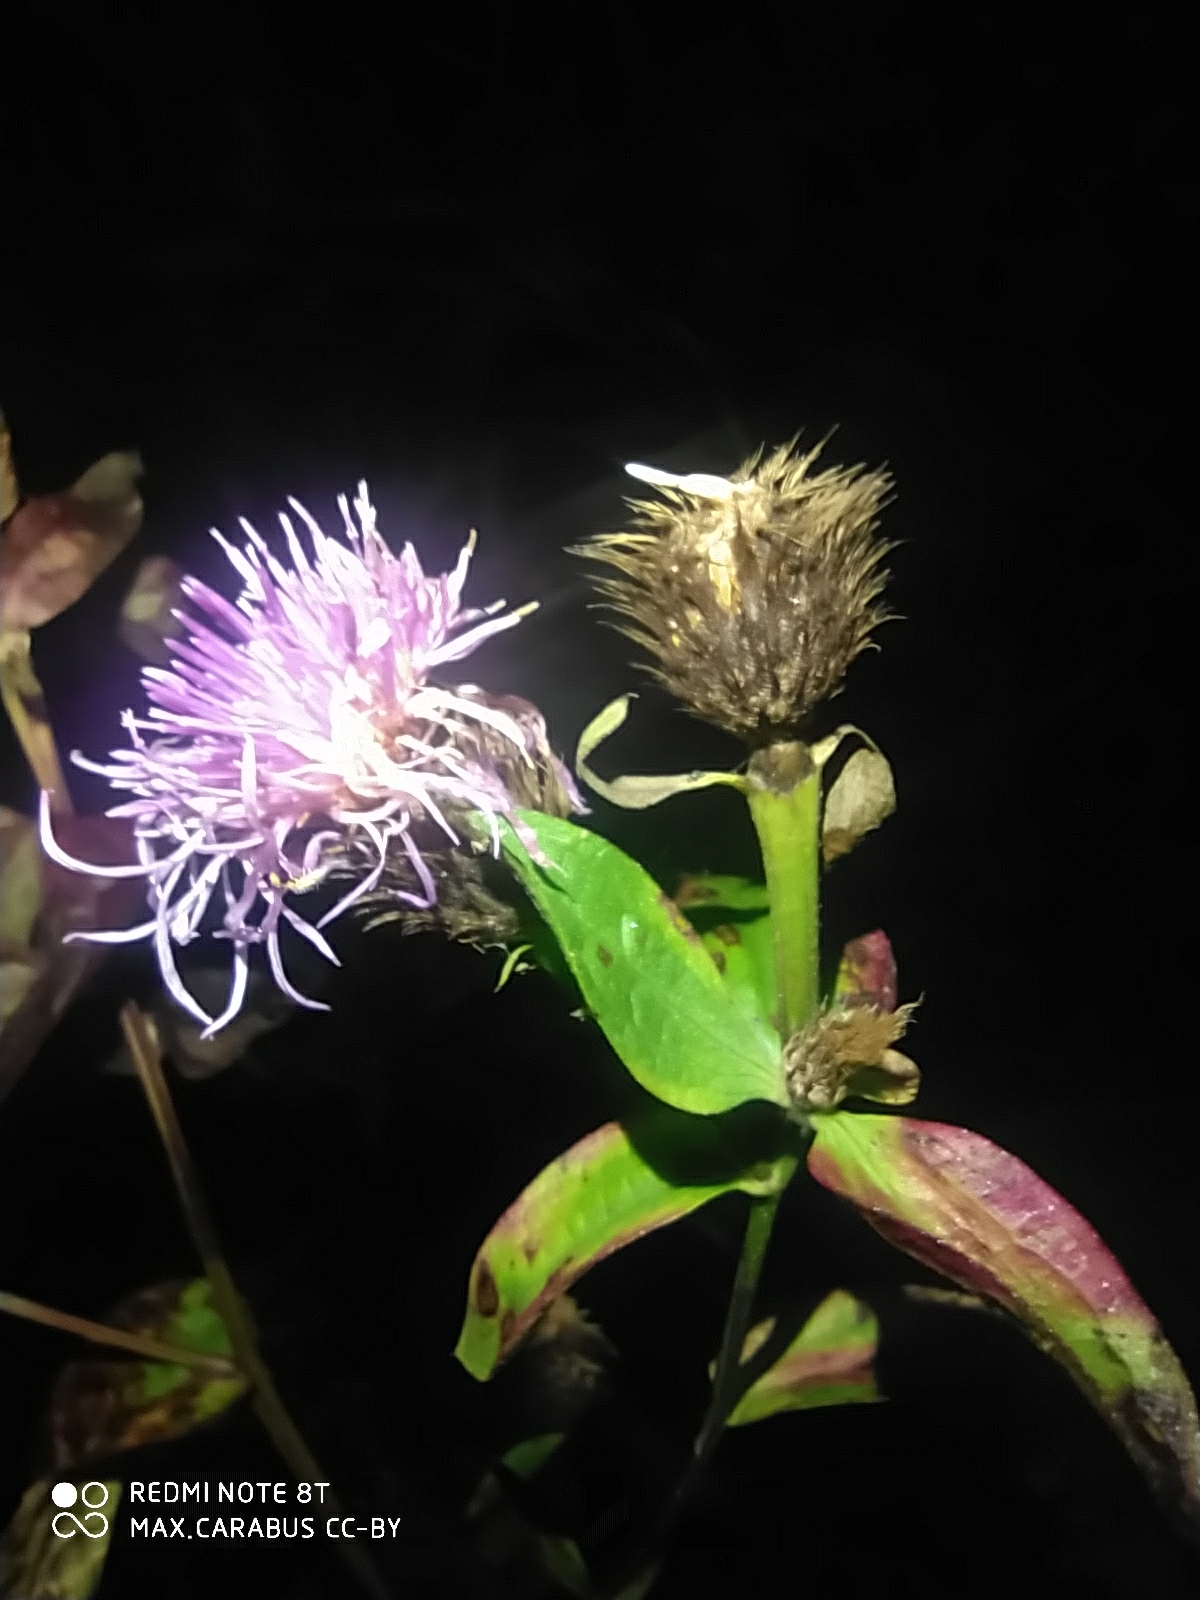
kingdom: Plantae
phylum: Tracheophyta
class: Magnoliopsida
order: Asterales
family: Asteraceae
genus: Centaurea
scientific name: Centaurea phrygia
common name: Wig knapweed
